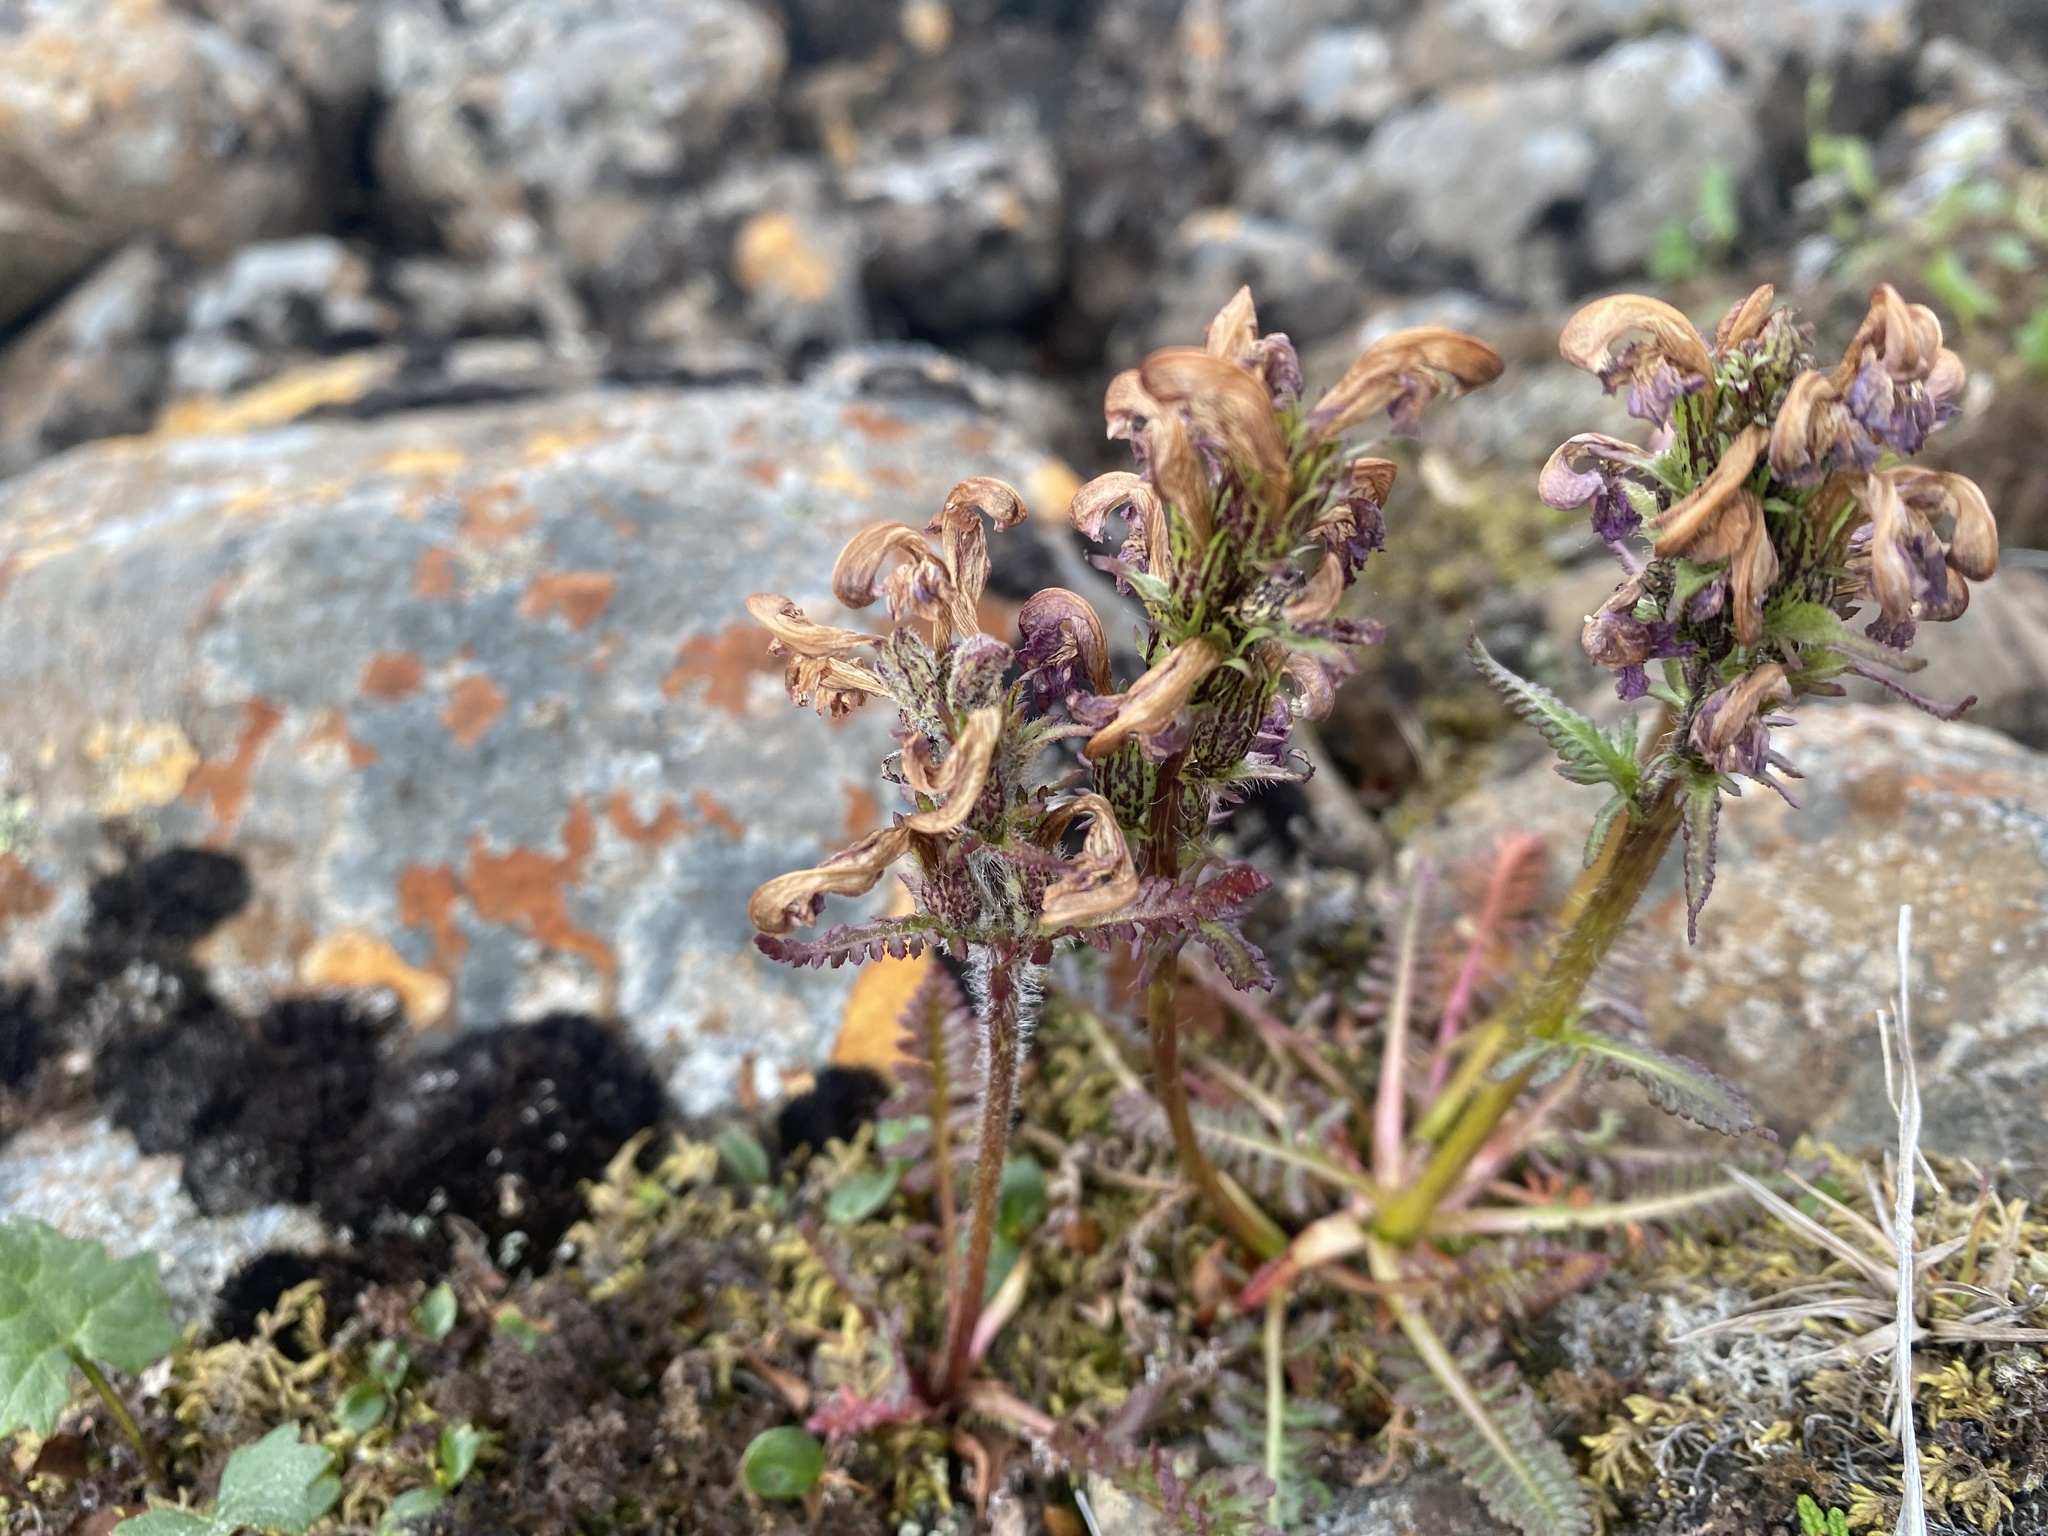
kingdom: Plantae
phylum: Tracheophyta
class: Magnoliopsida
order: Lamiales
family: Orobanchaceae
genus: Pedicularis
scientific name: Pedicularis interior
